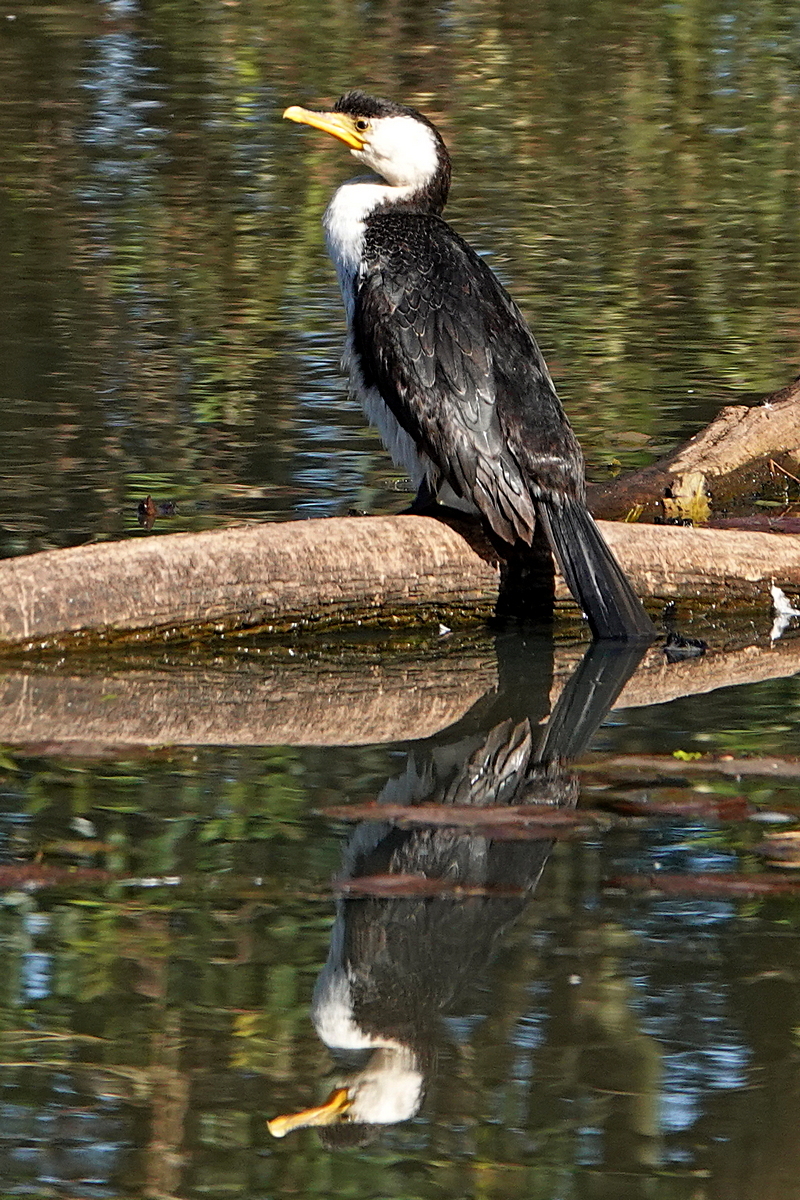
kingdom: Animalia
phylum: Chordata
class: Aves
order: Suliformes
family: Phalacrocoracidae
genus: Microcarbo
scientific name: Microcarbo melanoleucos
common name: Little pied cormorant
